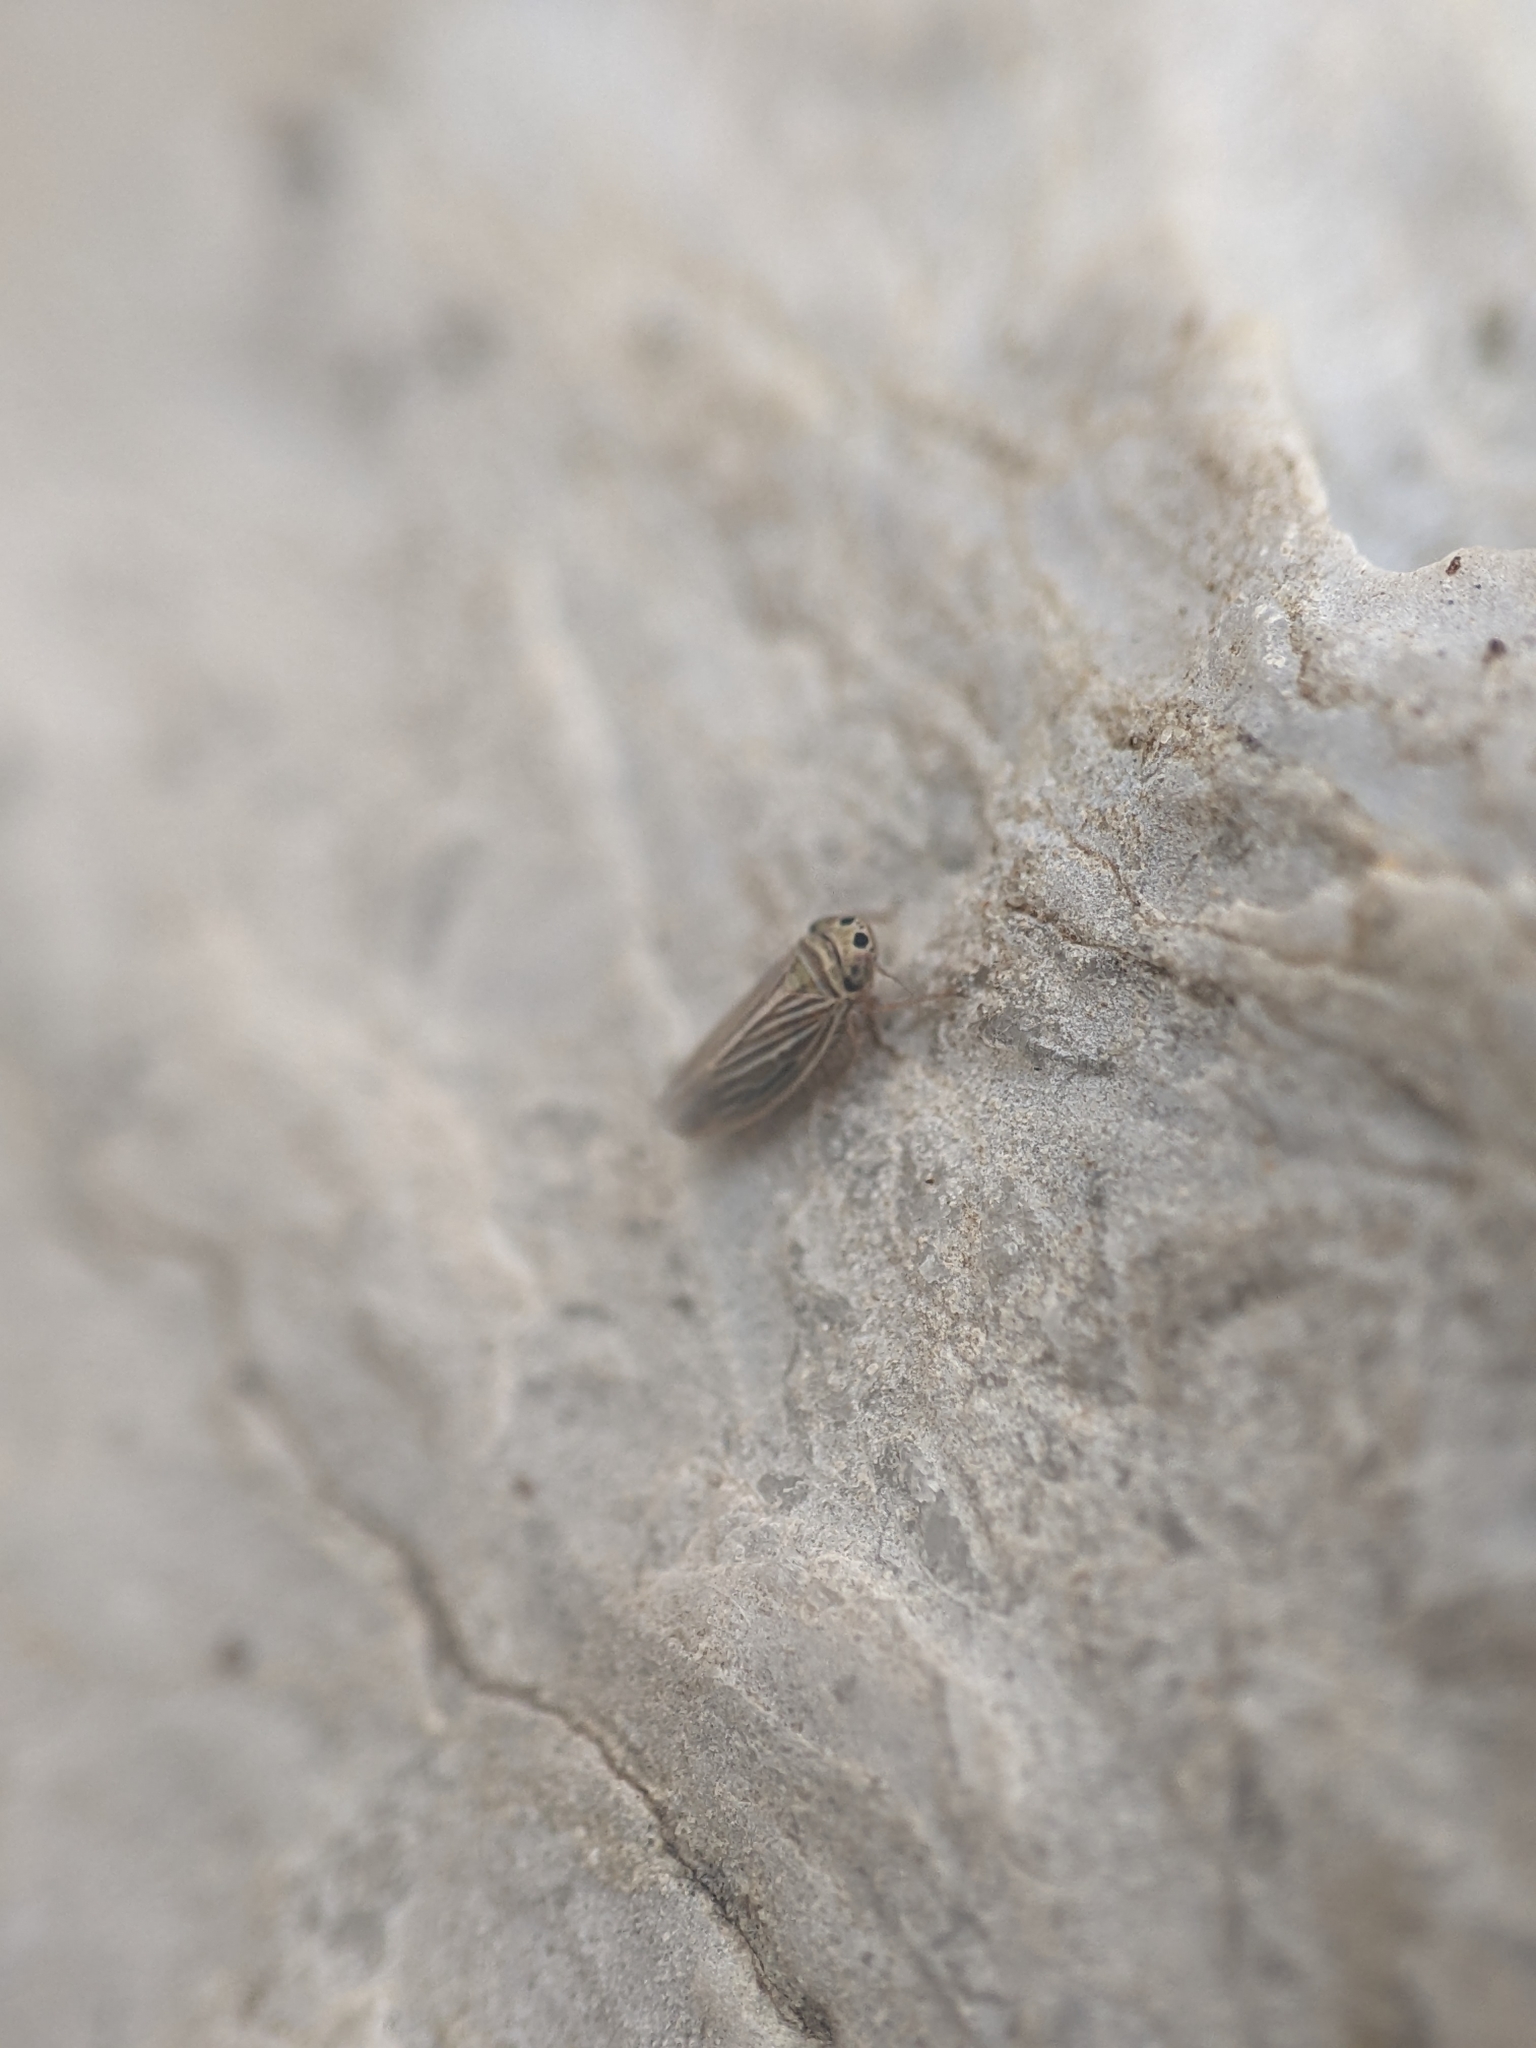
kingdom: Animalia
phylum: Arthropoda
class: Insecta
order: Hemiptera
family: Cicadellidae
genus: Graminella
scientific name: Graminella villicus
